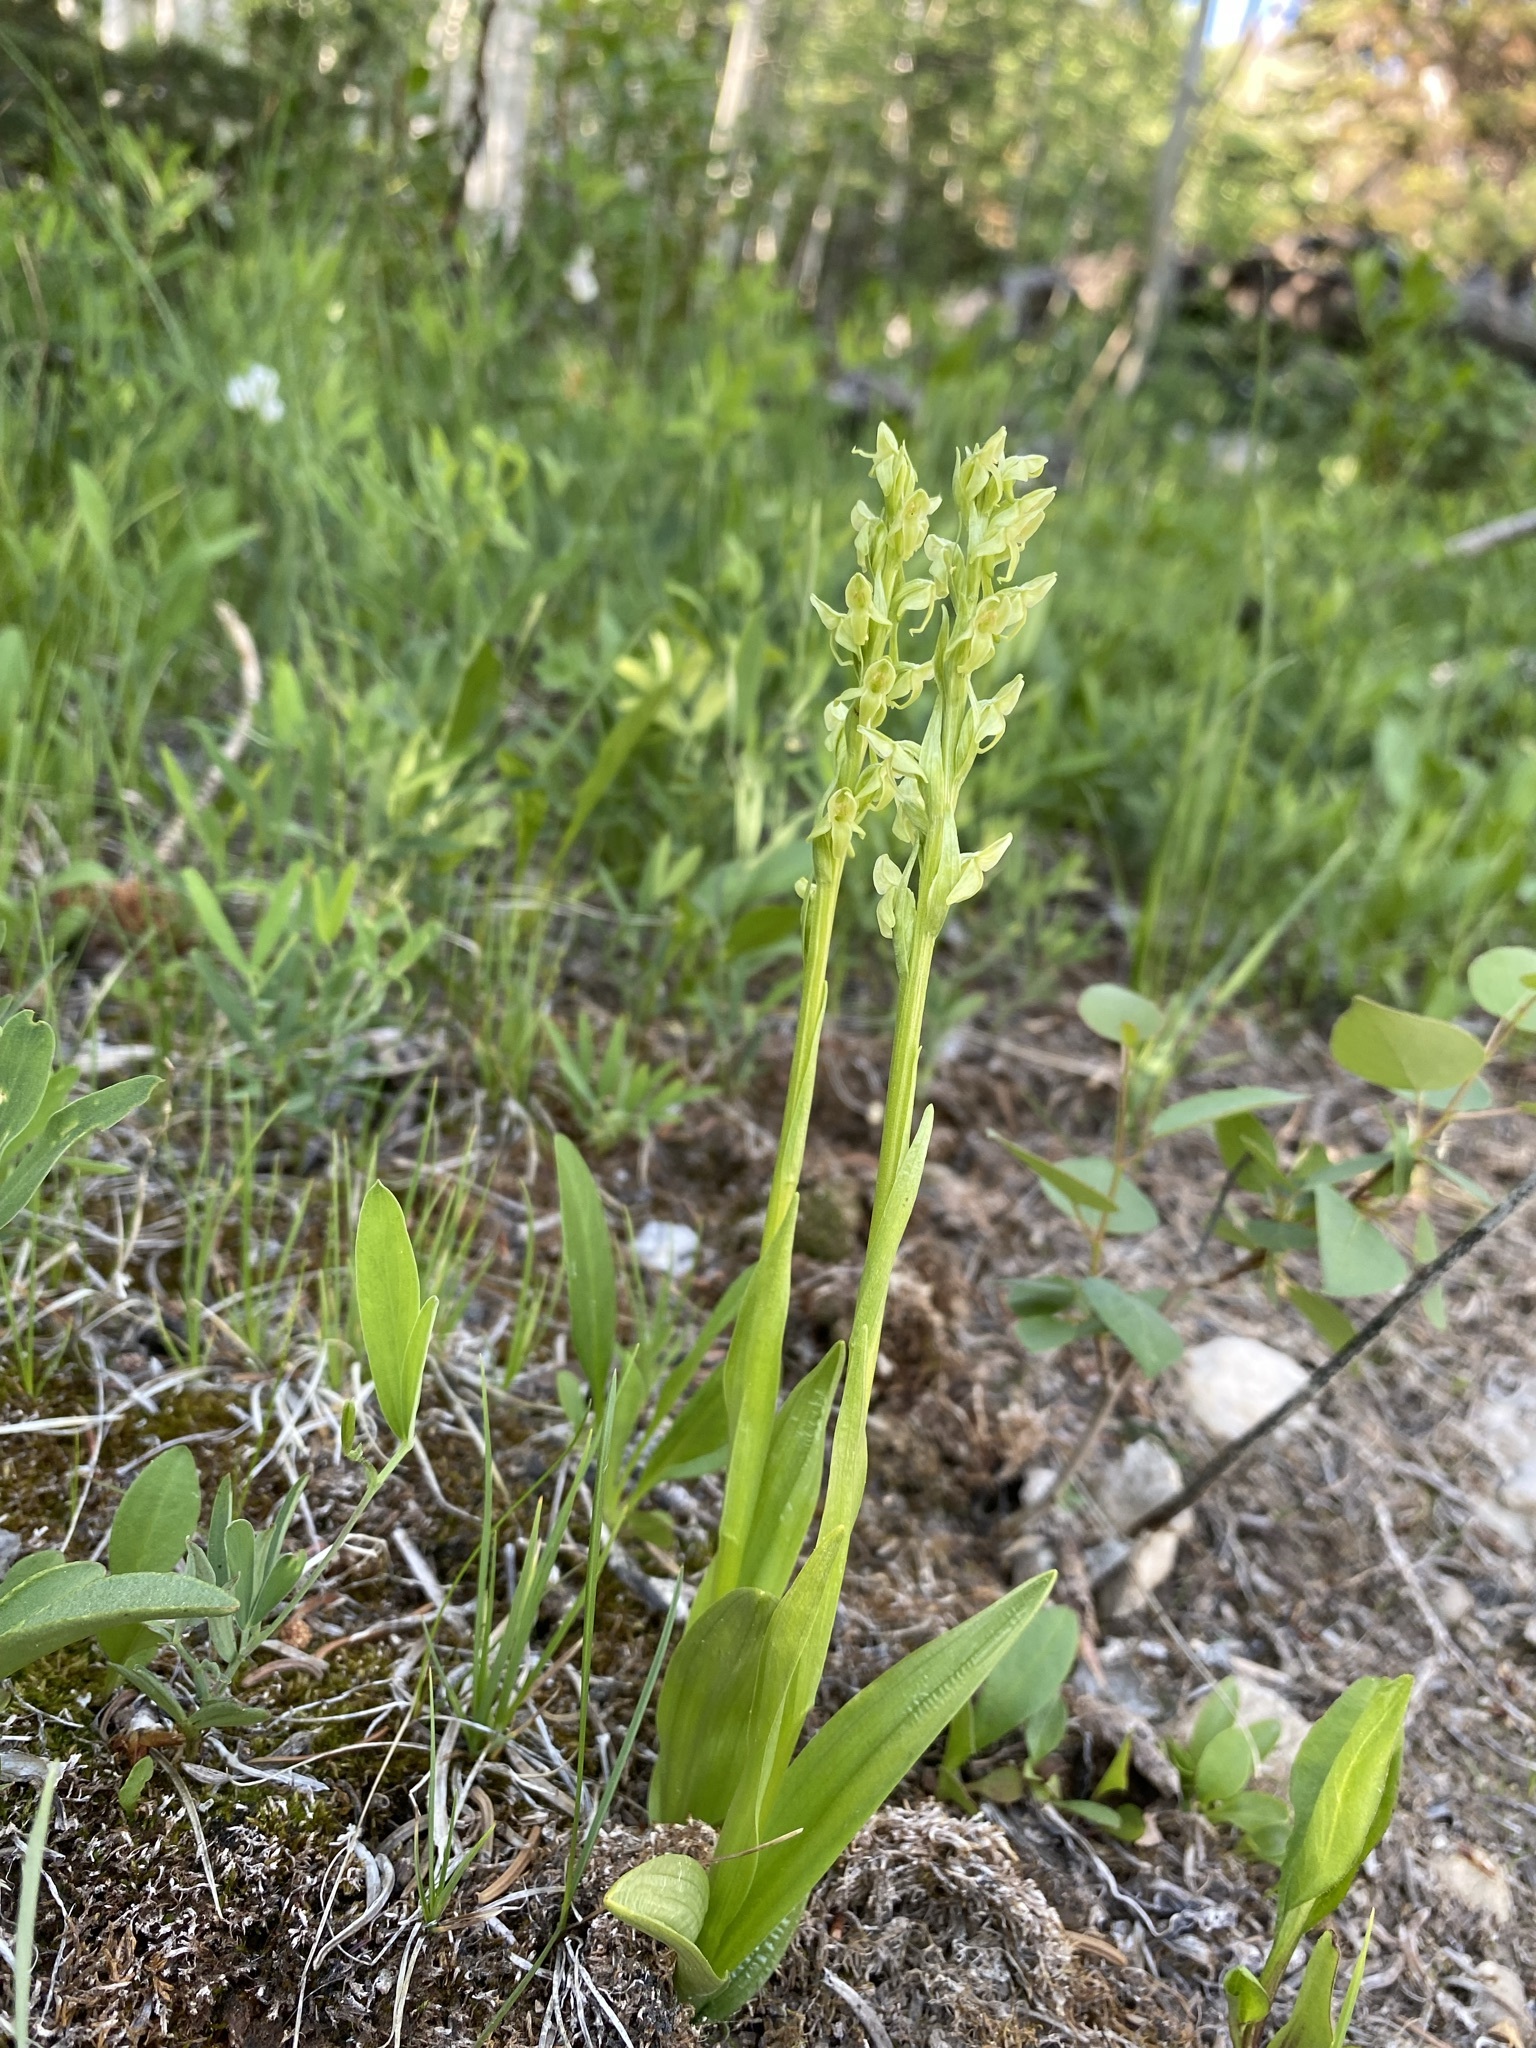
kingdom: Plantae
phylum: Tracheophyta
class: Liliopsida
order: Asparagales
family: Orchidaceae
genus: Platanthera
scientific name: Platanthera huronensis
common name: Fragrant green orchid
